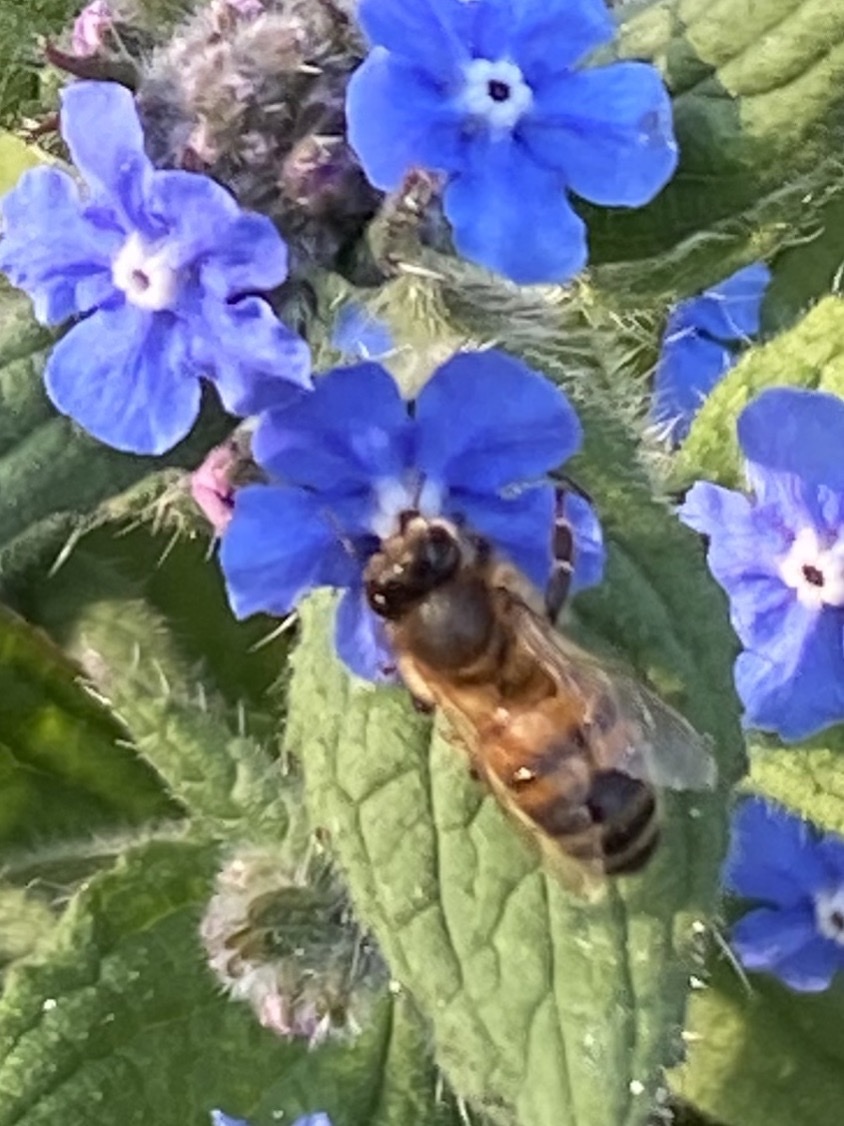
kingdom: Animalia
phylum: Arthropoda
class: Insecta
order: Hymenoptera
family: Apidae
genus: Apis
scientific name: Apis mellifera
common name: Honey bee
